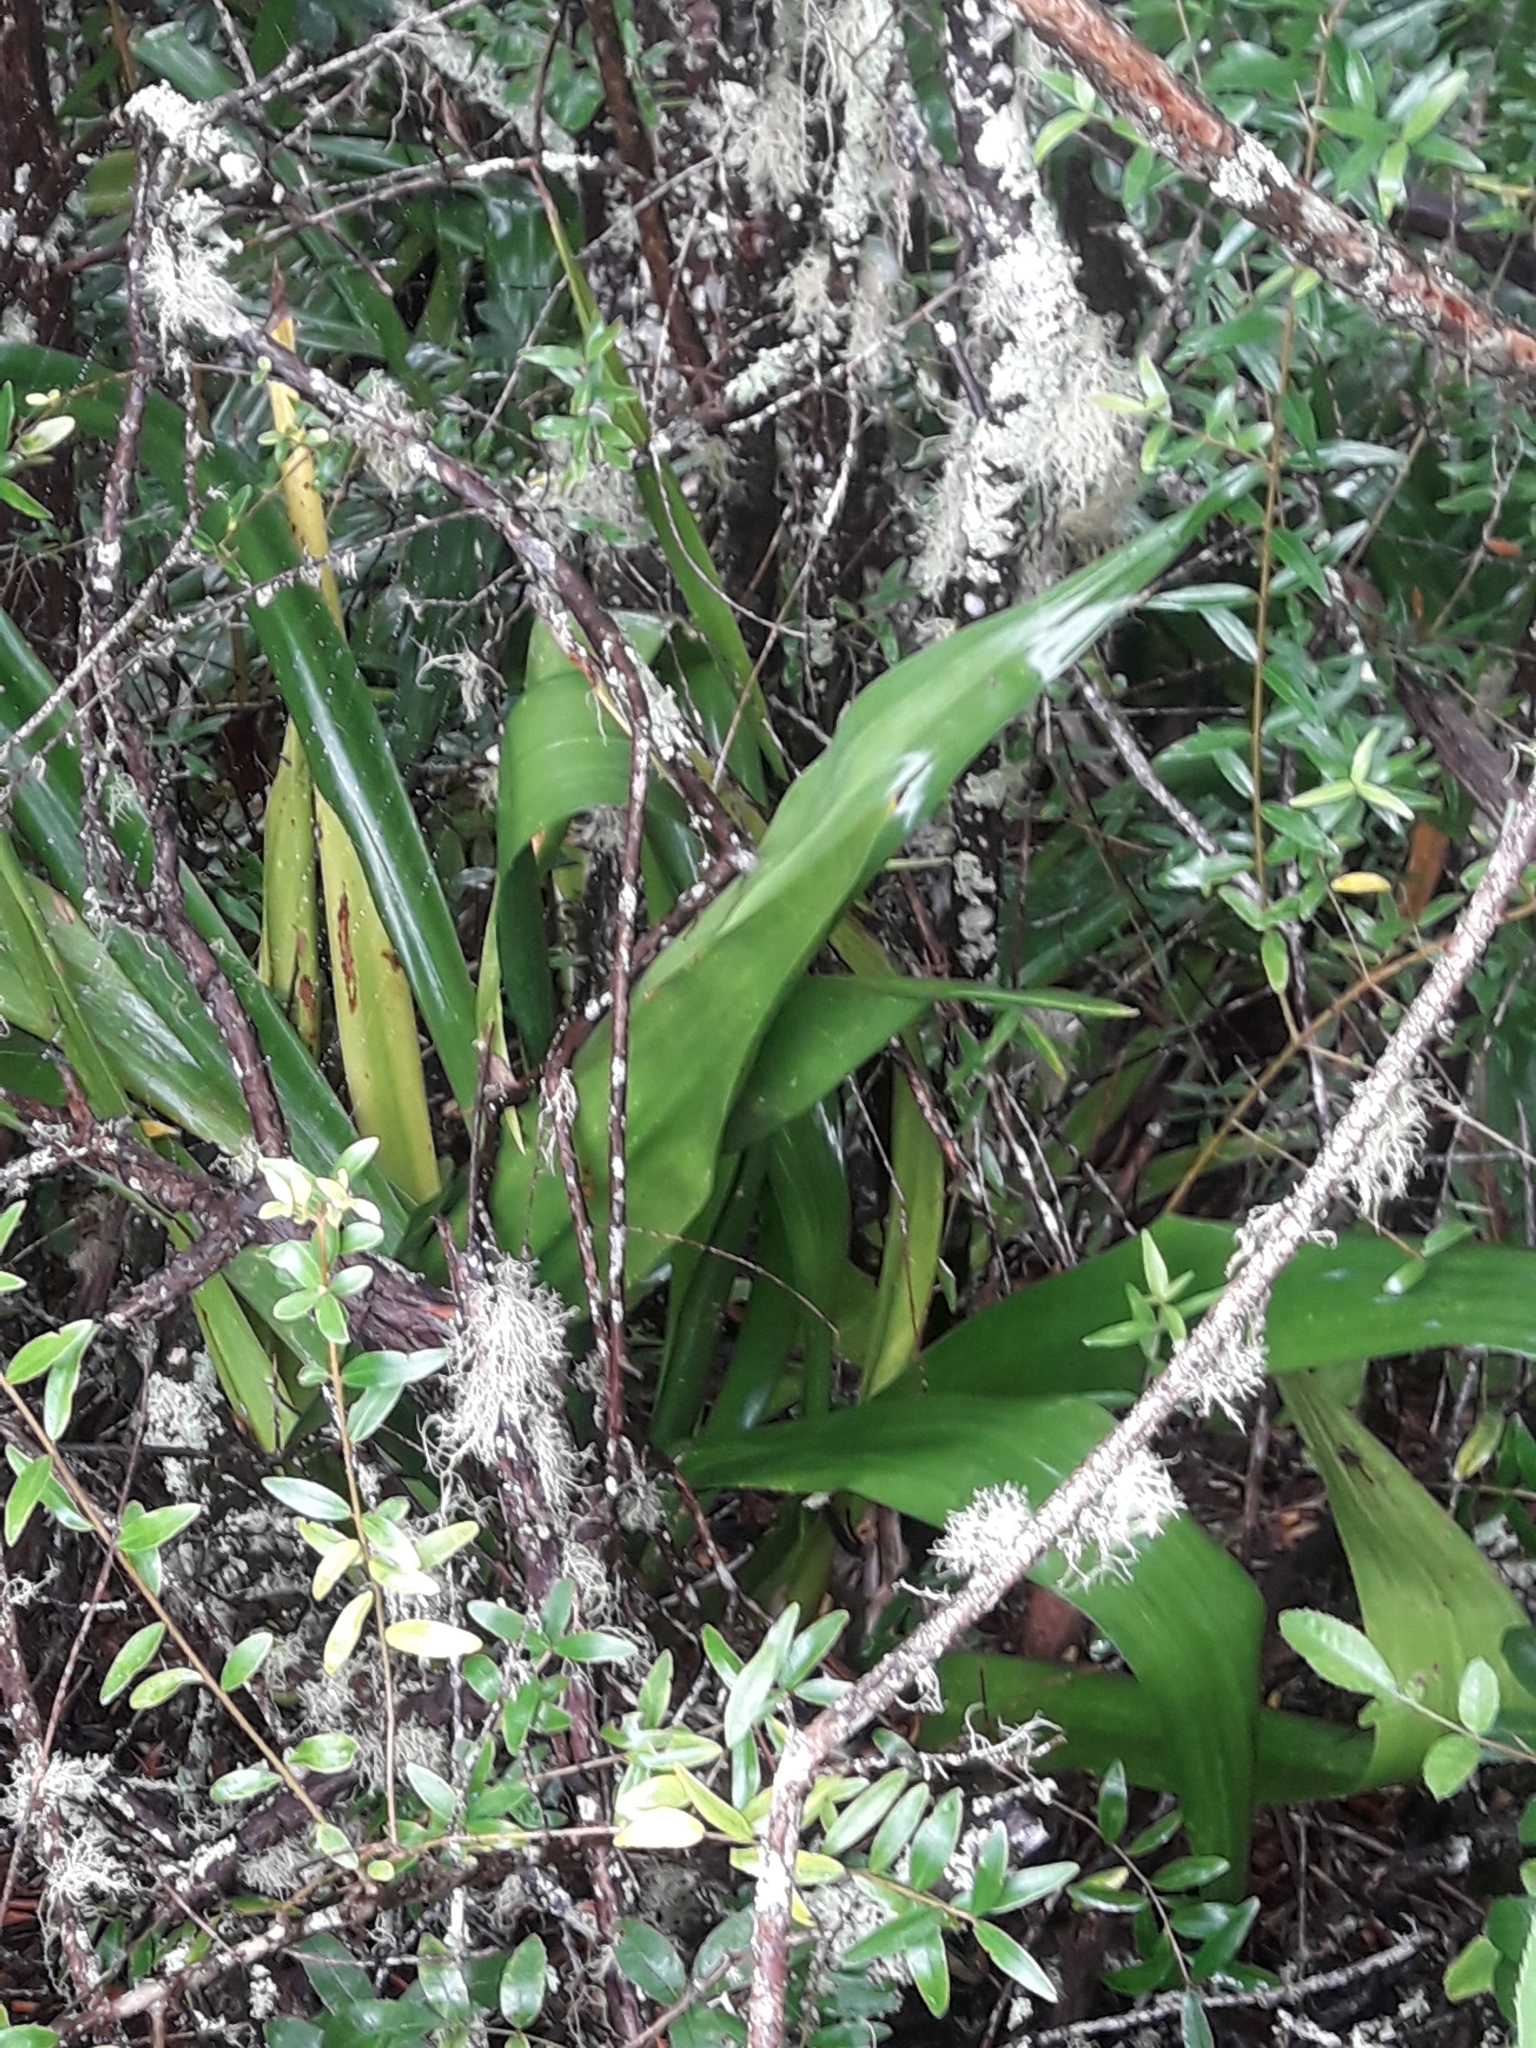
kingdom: Plantae
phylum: Tracheophyta
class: Liliopsida
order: Asparagales
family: Asparagaceae
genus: Furcraea
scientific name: Furcraea foetida
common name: Mauritius hemp
